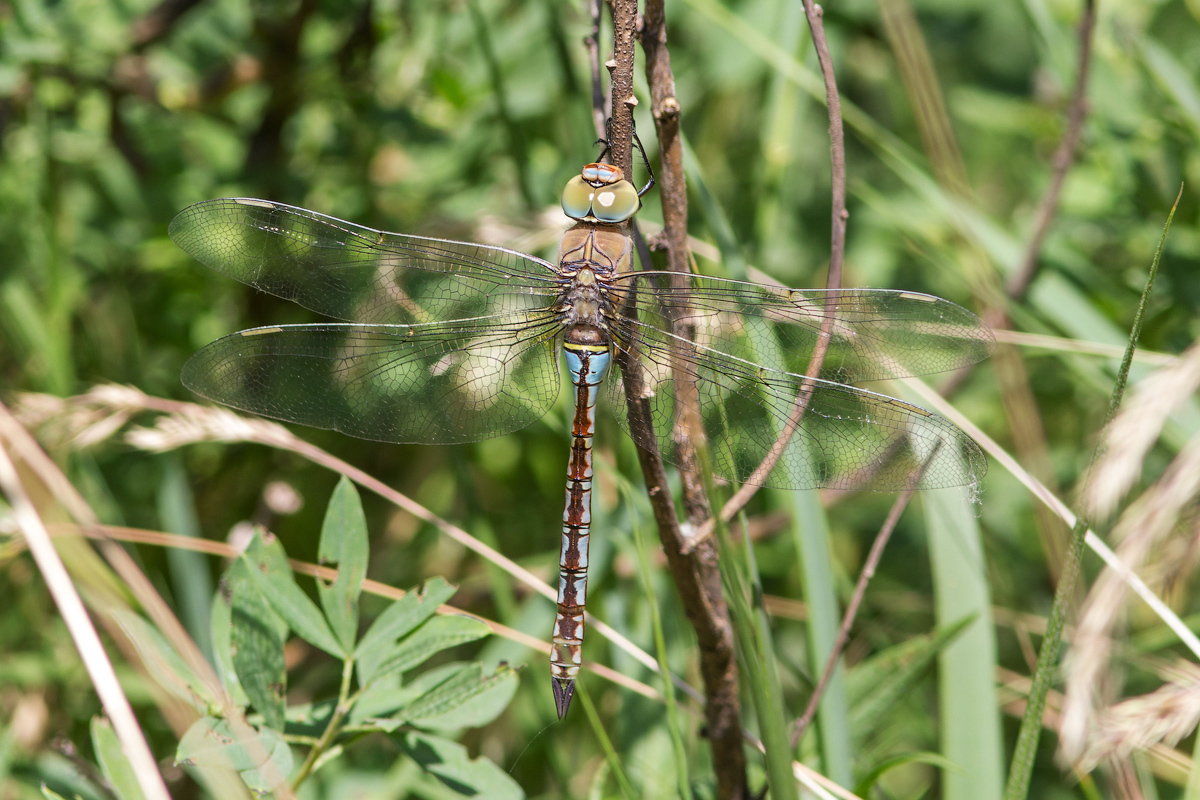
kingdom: Animalia
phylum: Arthropoda
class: Insecta
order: Odonata
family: Aeshnidae
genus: Anax
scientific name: Anax parthenope
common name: Lesser emperor
